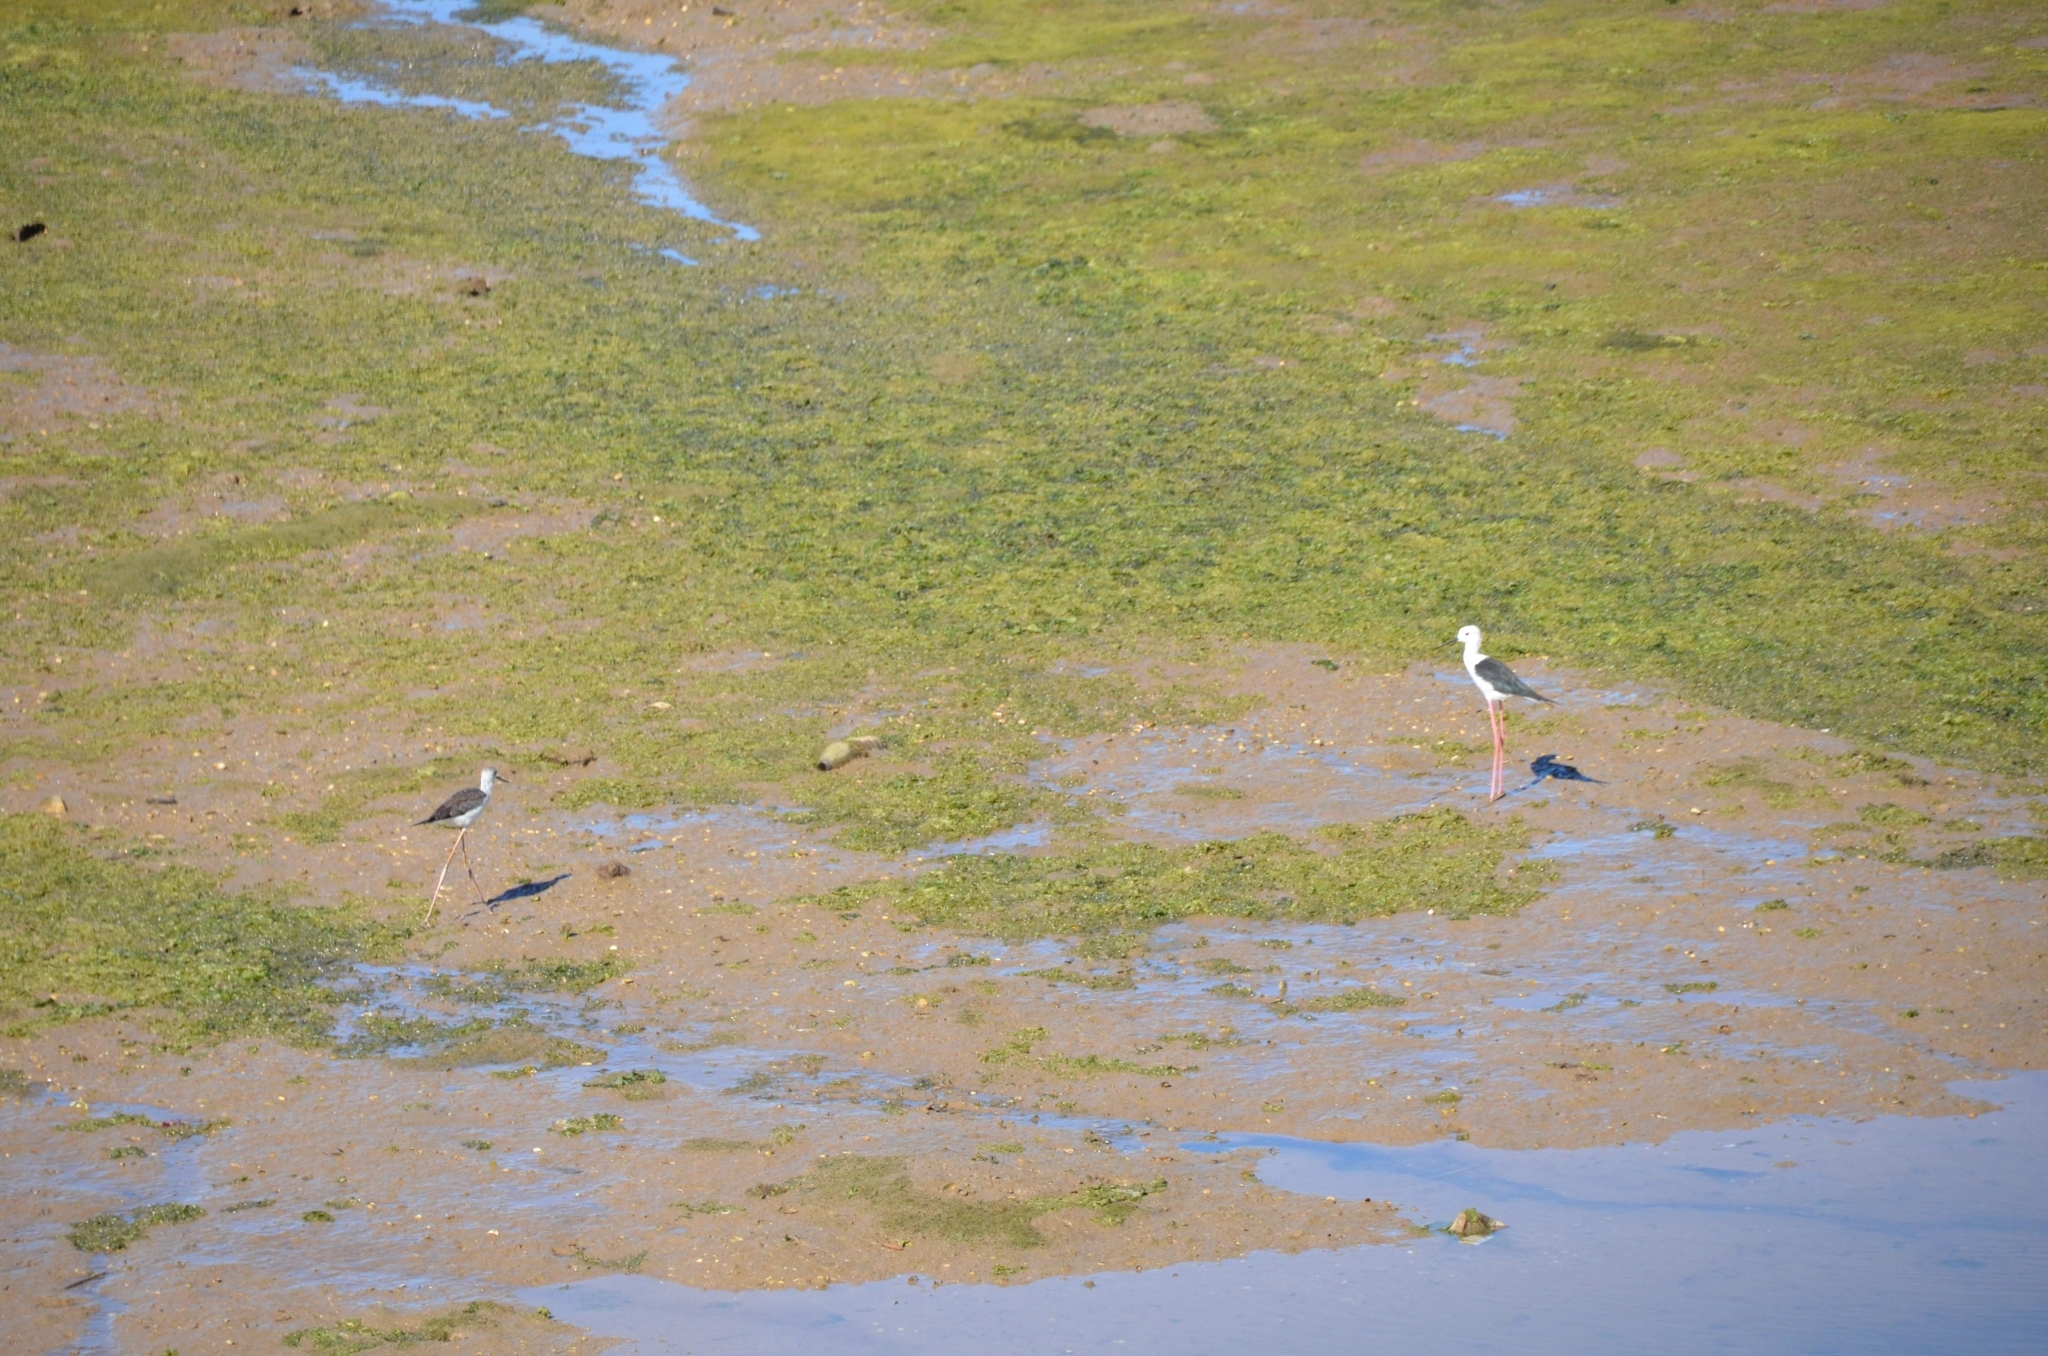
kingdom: Animalia
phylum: Chordata
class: Aves
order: Charadriiformes
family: Recurvirostridae
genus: Himantopus
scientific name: Himantopus himantopus
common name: Black-winged stilt
